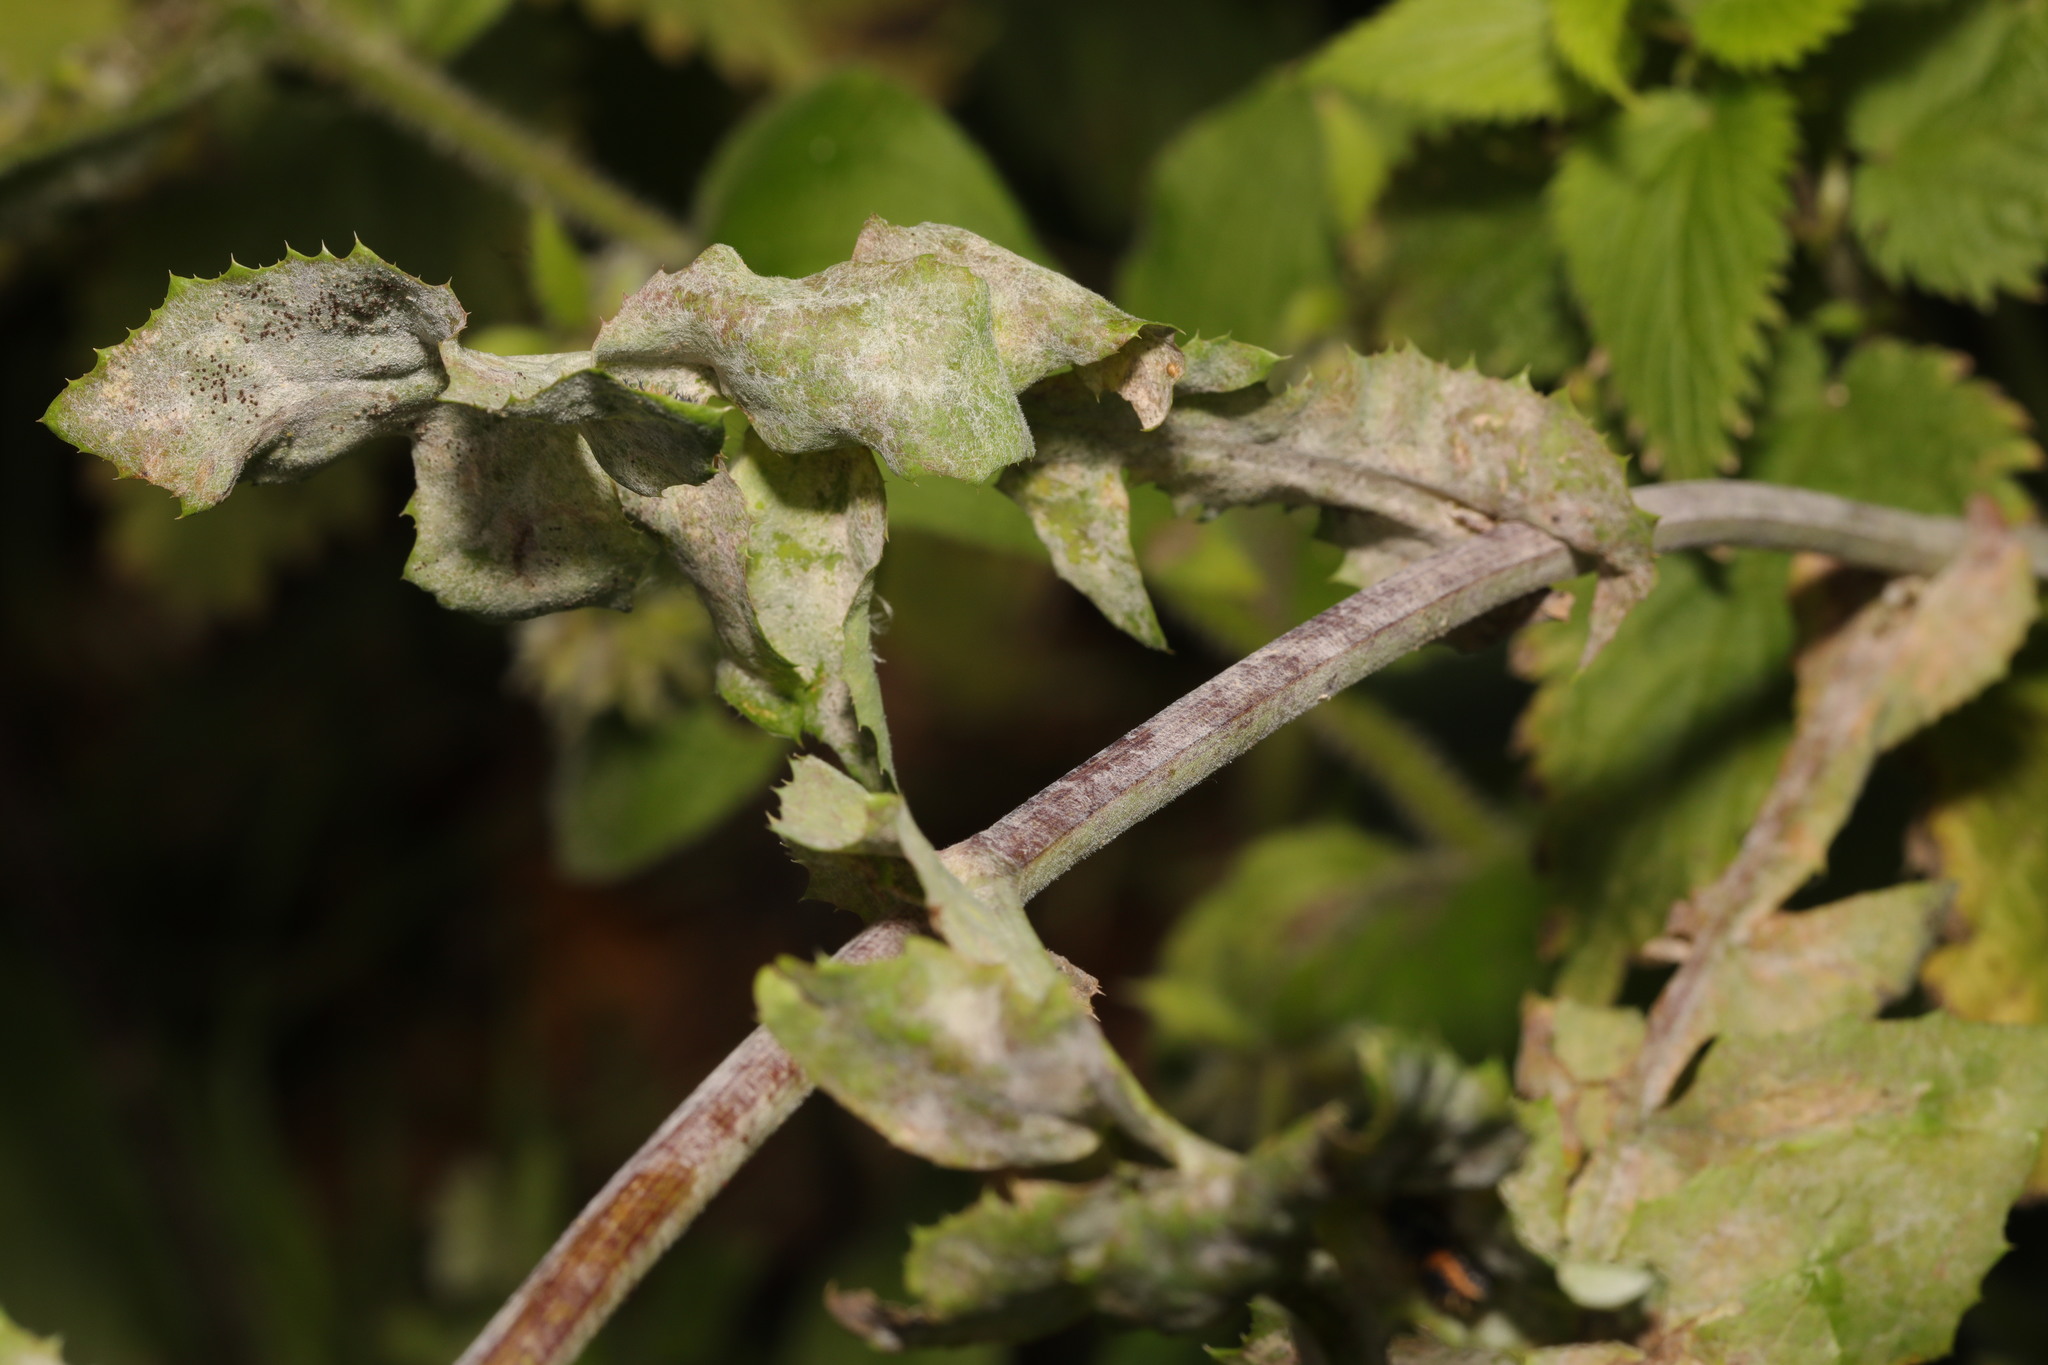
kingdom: Fungi
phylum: Ascomycota
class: Leotiomycetes
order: Helotiales
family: Erysiphaceae
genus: Golovinomyces
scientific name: Golovinomyces sonchicola
